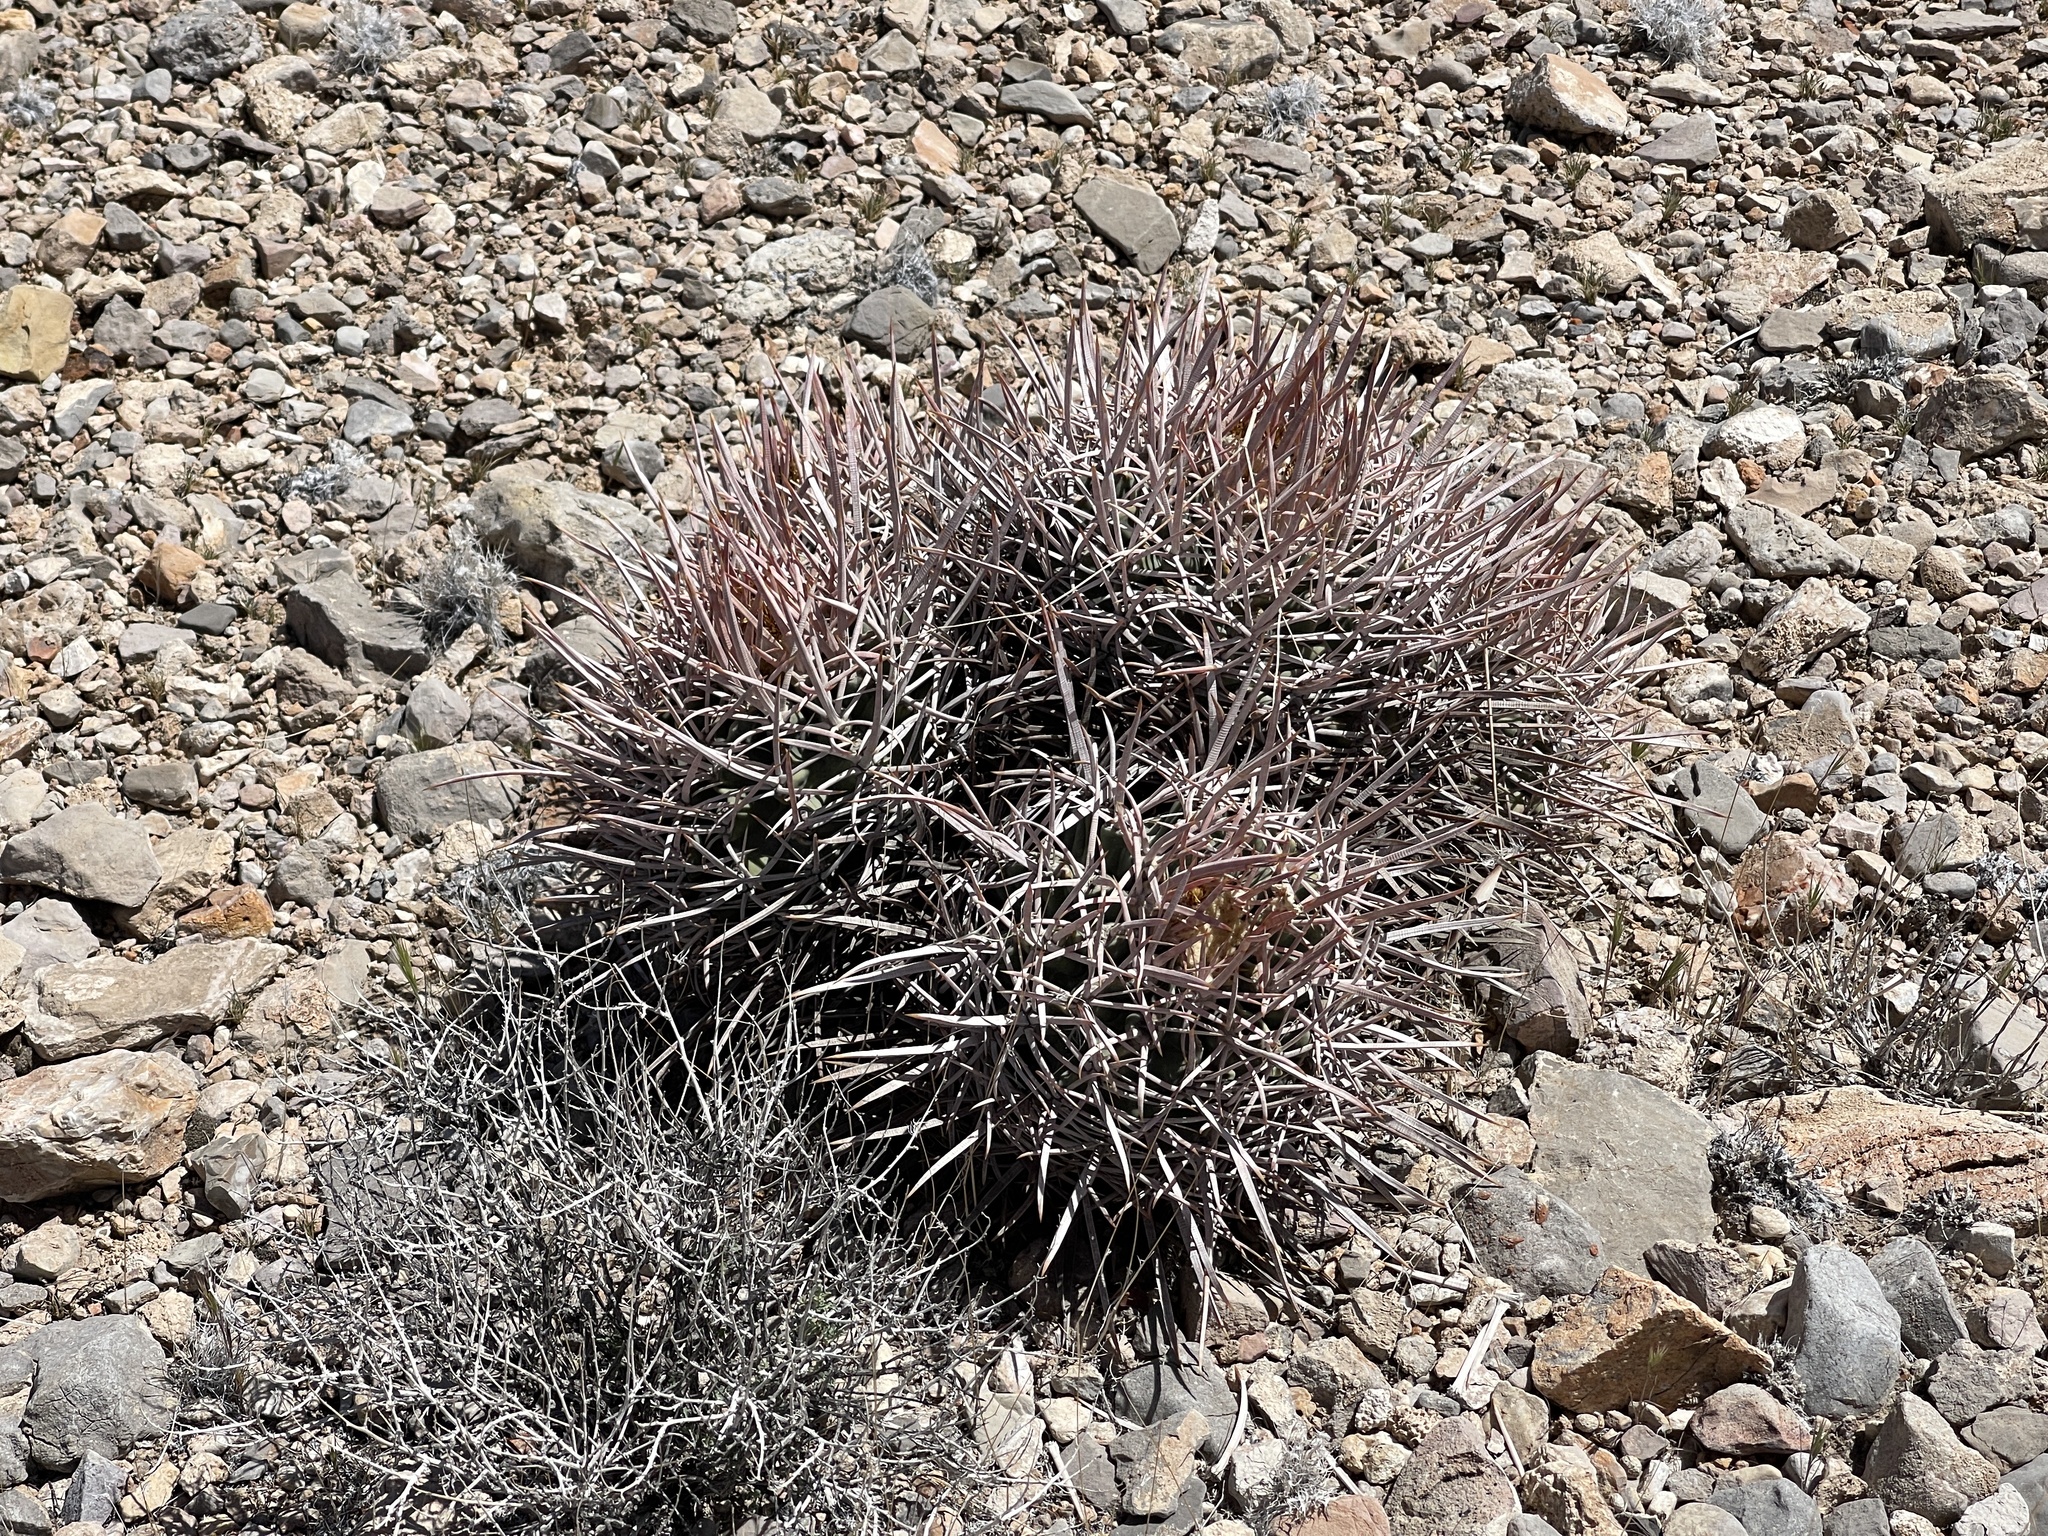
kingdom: Plantae
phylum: Tracheophyta
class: Magnoliopsida
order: Caryophyllales
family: Cactaceae
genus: Echinocactus
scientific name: Echinocactus polycephalus
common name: Cottontop cactus
